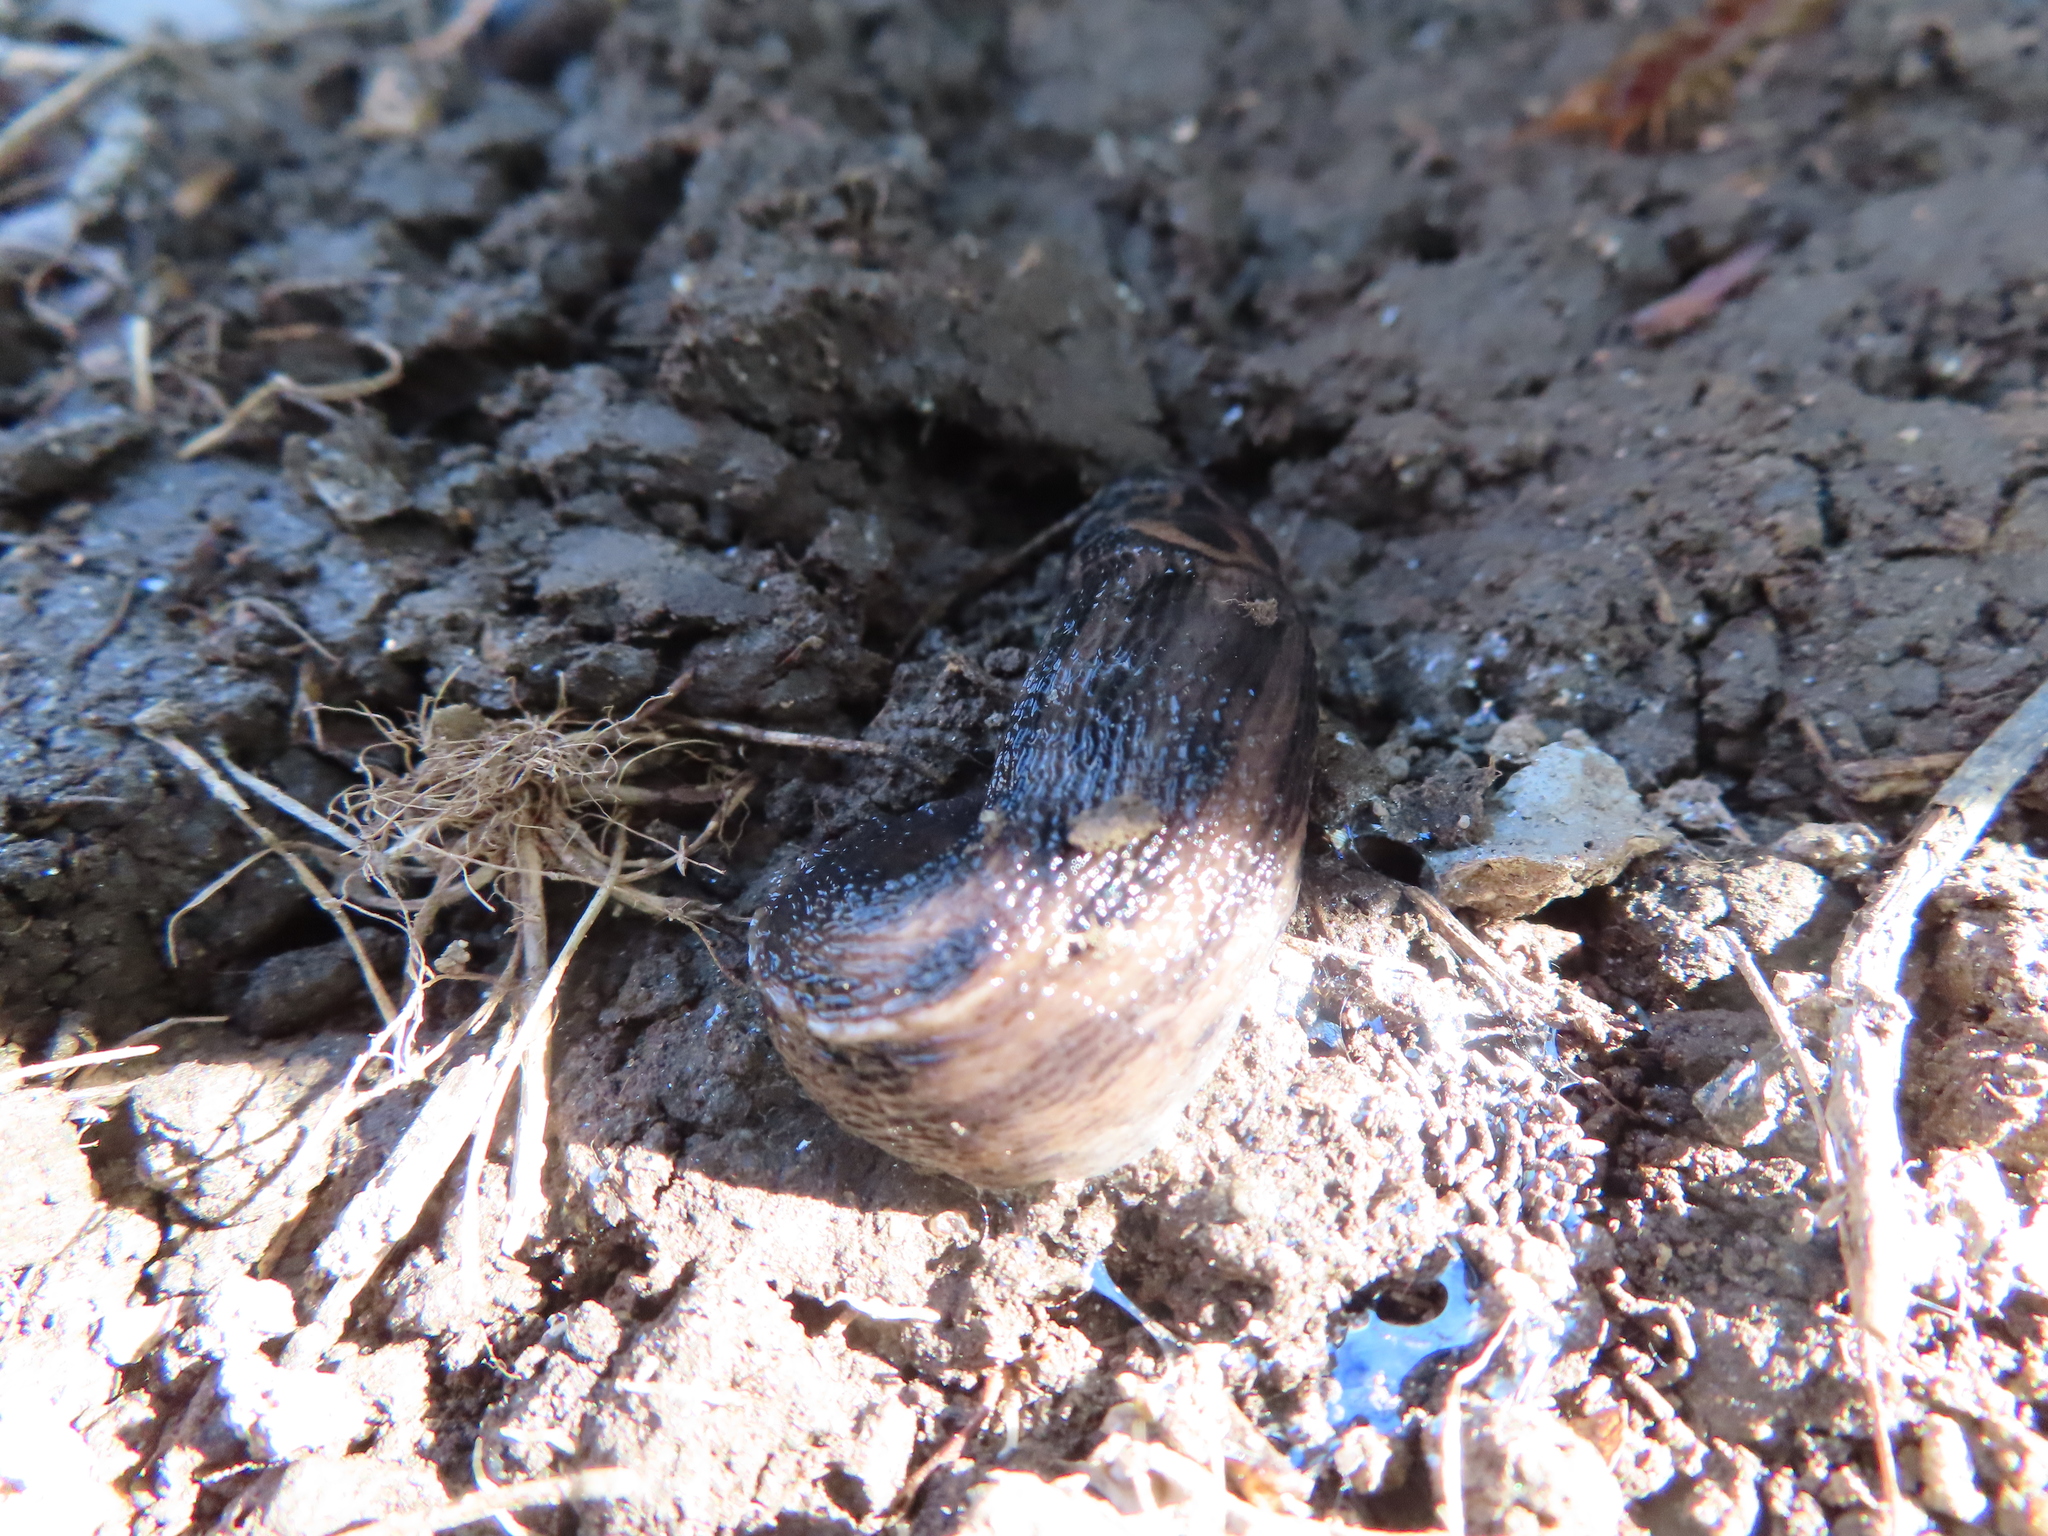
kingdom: Animalia
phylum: Mollusca
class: Gastropoda
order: Stylommatophora
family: Limacidae
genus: Limax
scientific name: Limax maximus
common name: Great grey slug
